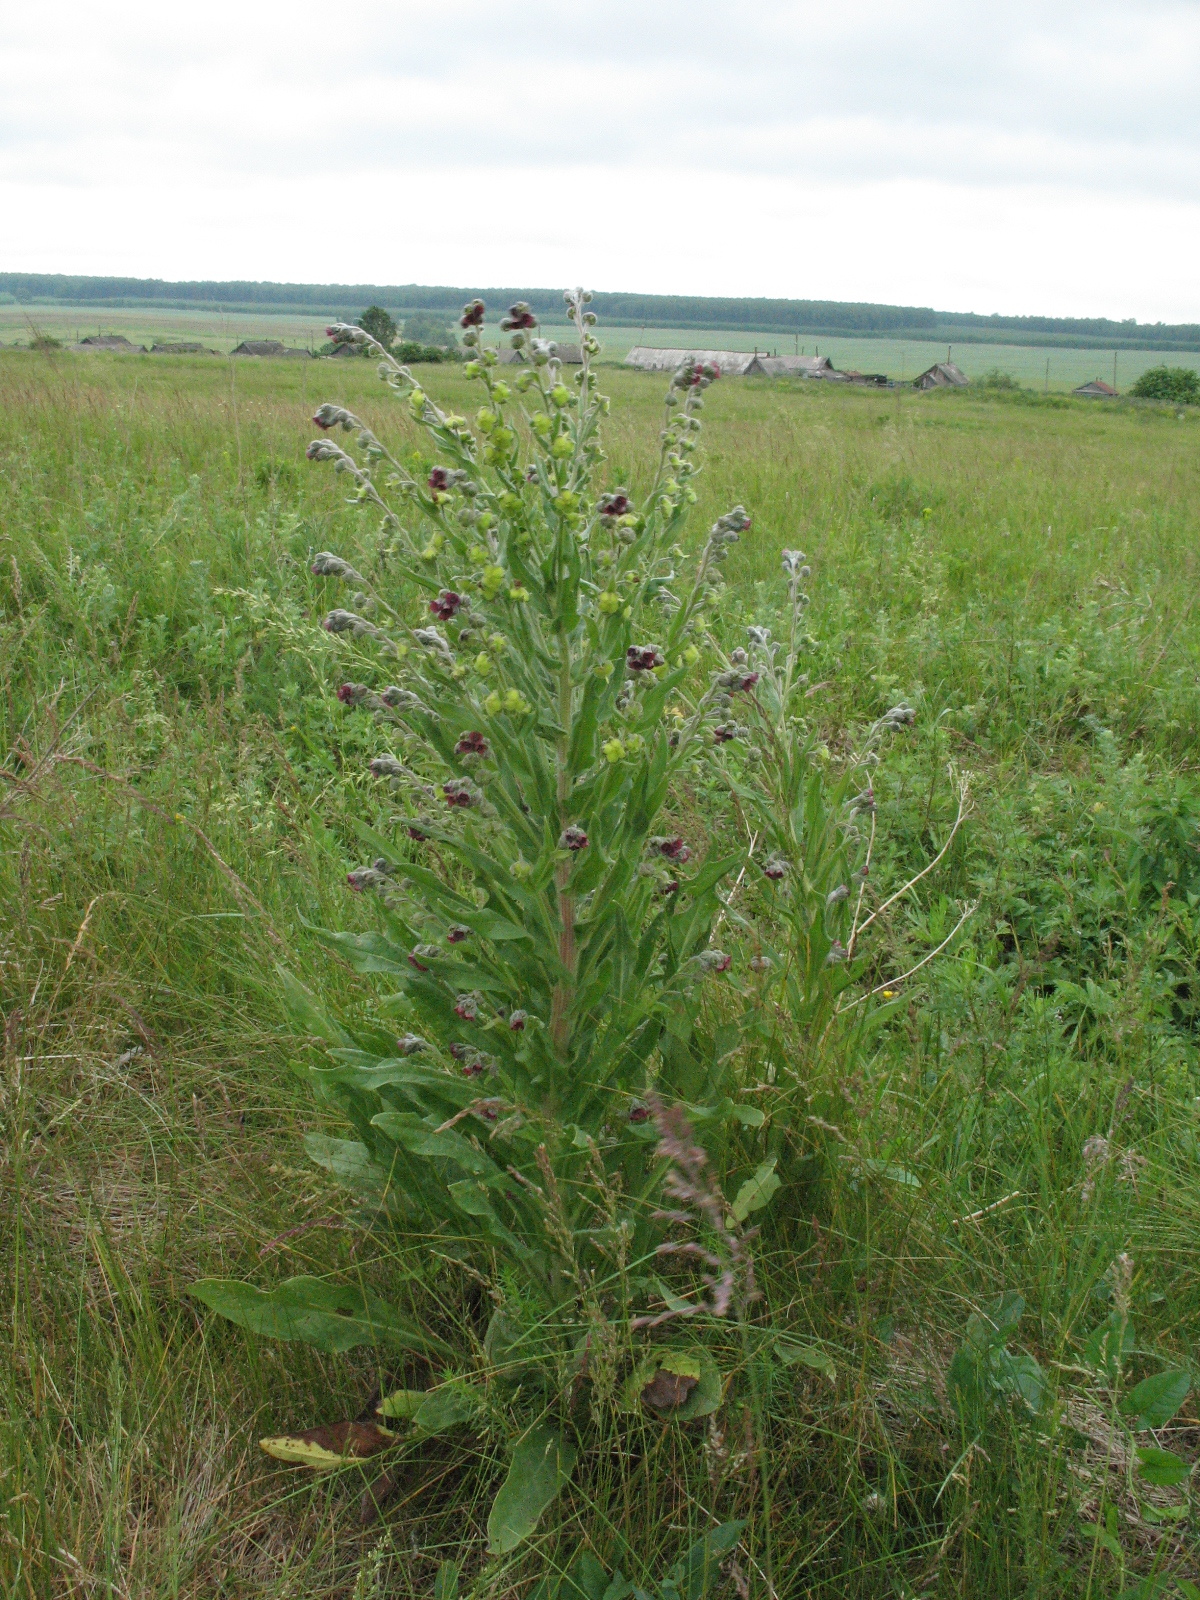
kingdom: Plantae
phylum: Tracheophyta
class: Magnoliopsida
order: Boraginales
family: Boraginaceae
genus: Cynoglossum
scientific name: Cynoglossum officinale
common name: Hound's-tongue
